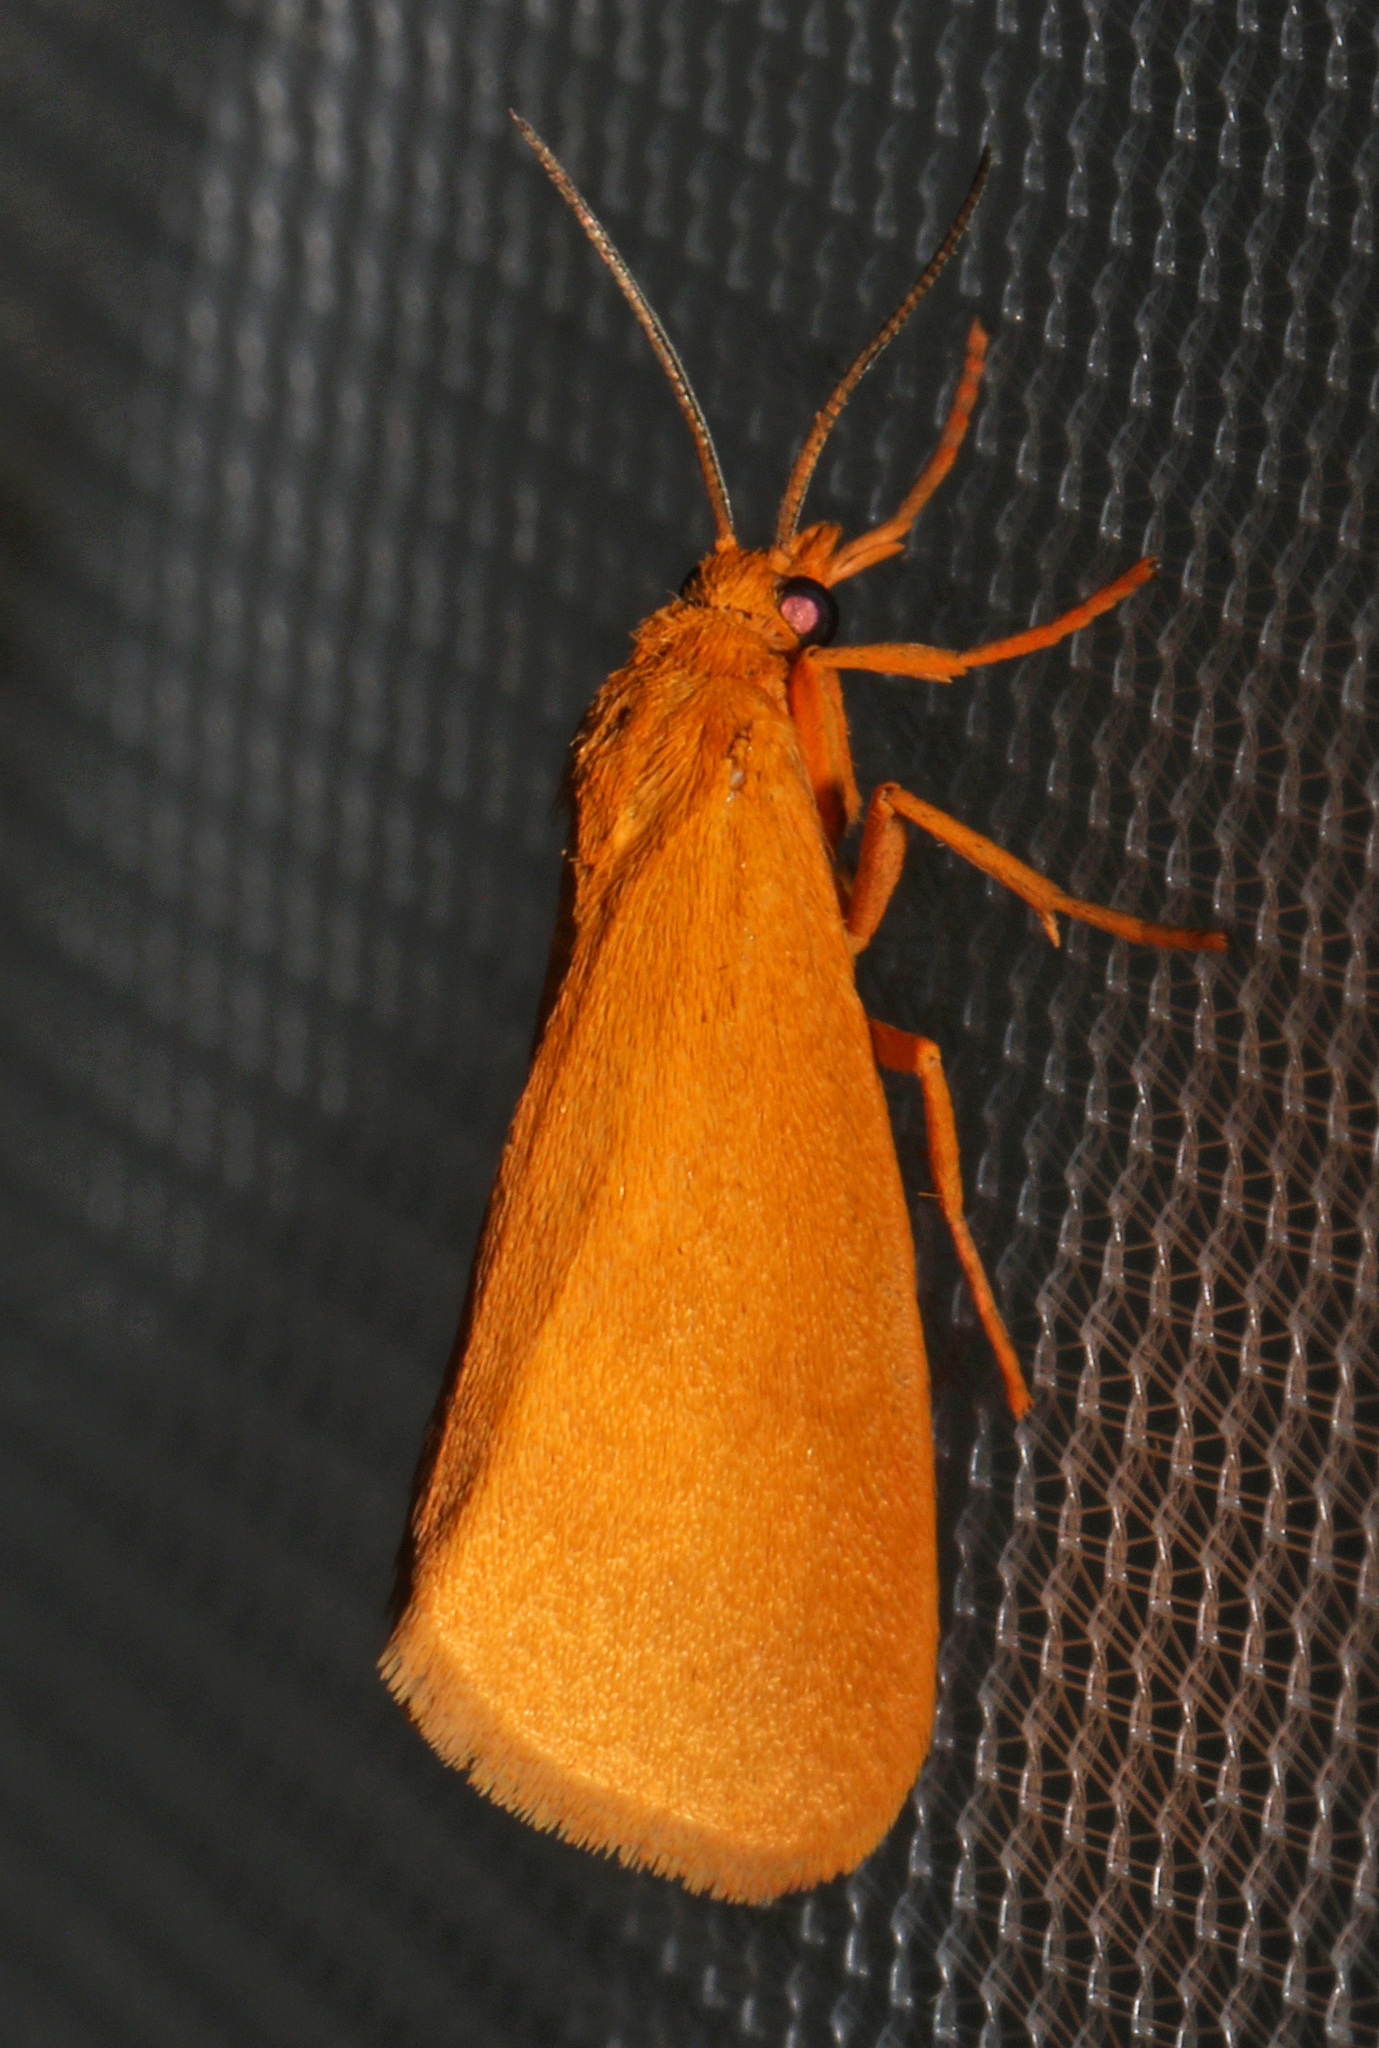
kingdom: Animalia
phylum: Arthropoda
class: Insecta
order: Lepidoptera
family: Erebidae
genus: Virbia
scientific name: Virbia aurantiaca
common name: Orange virbia moth
